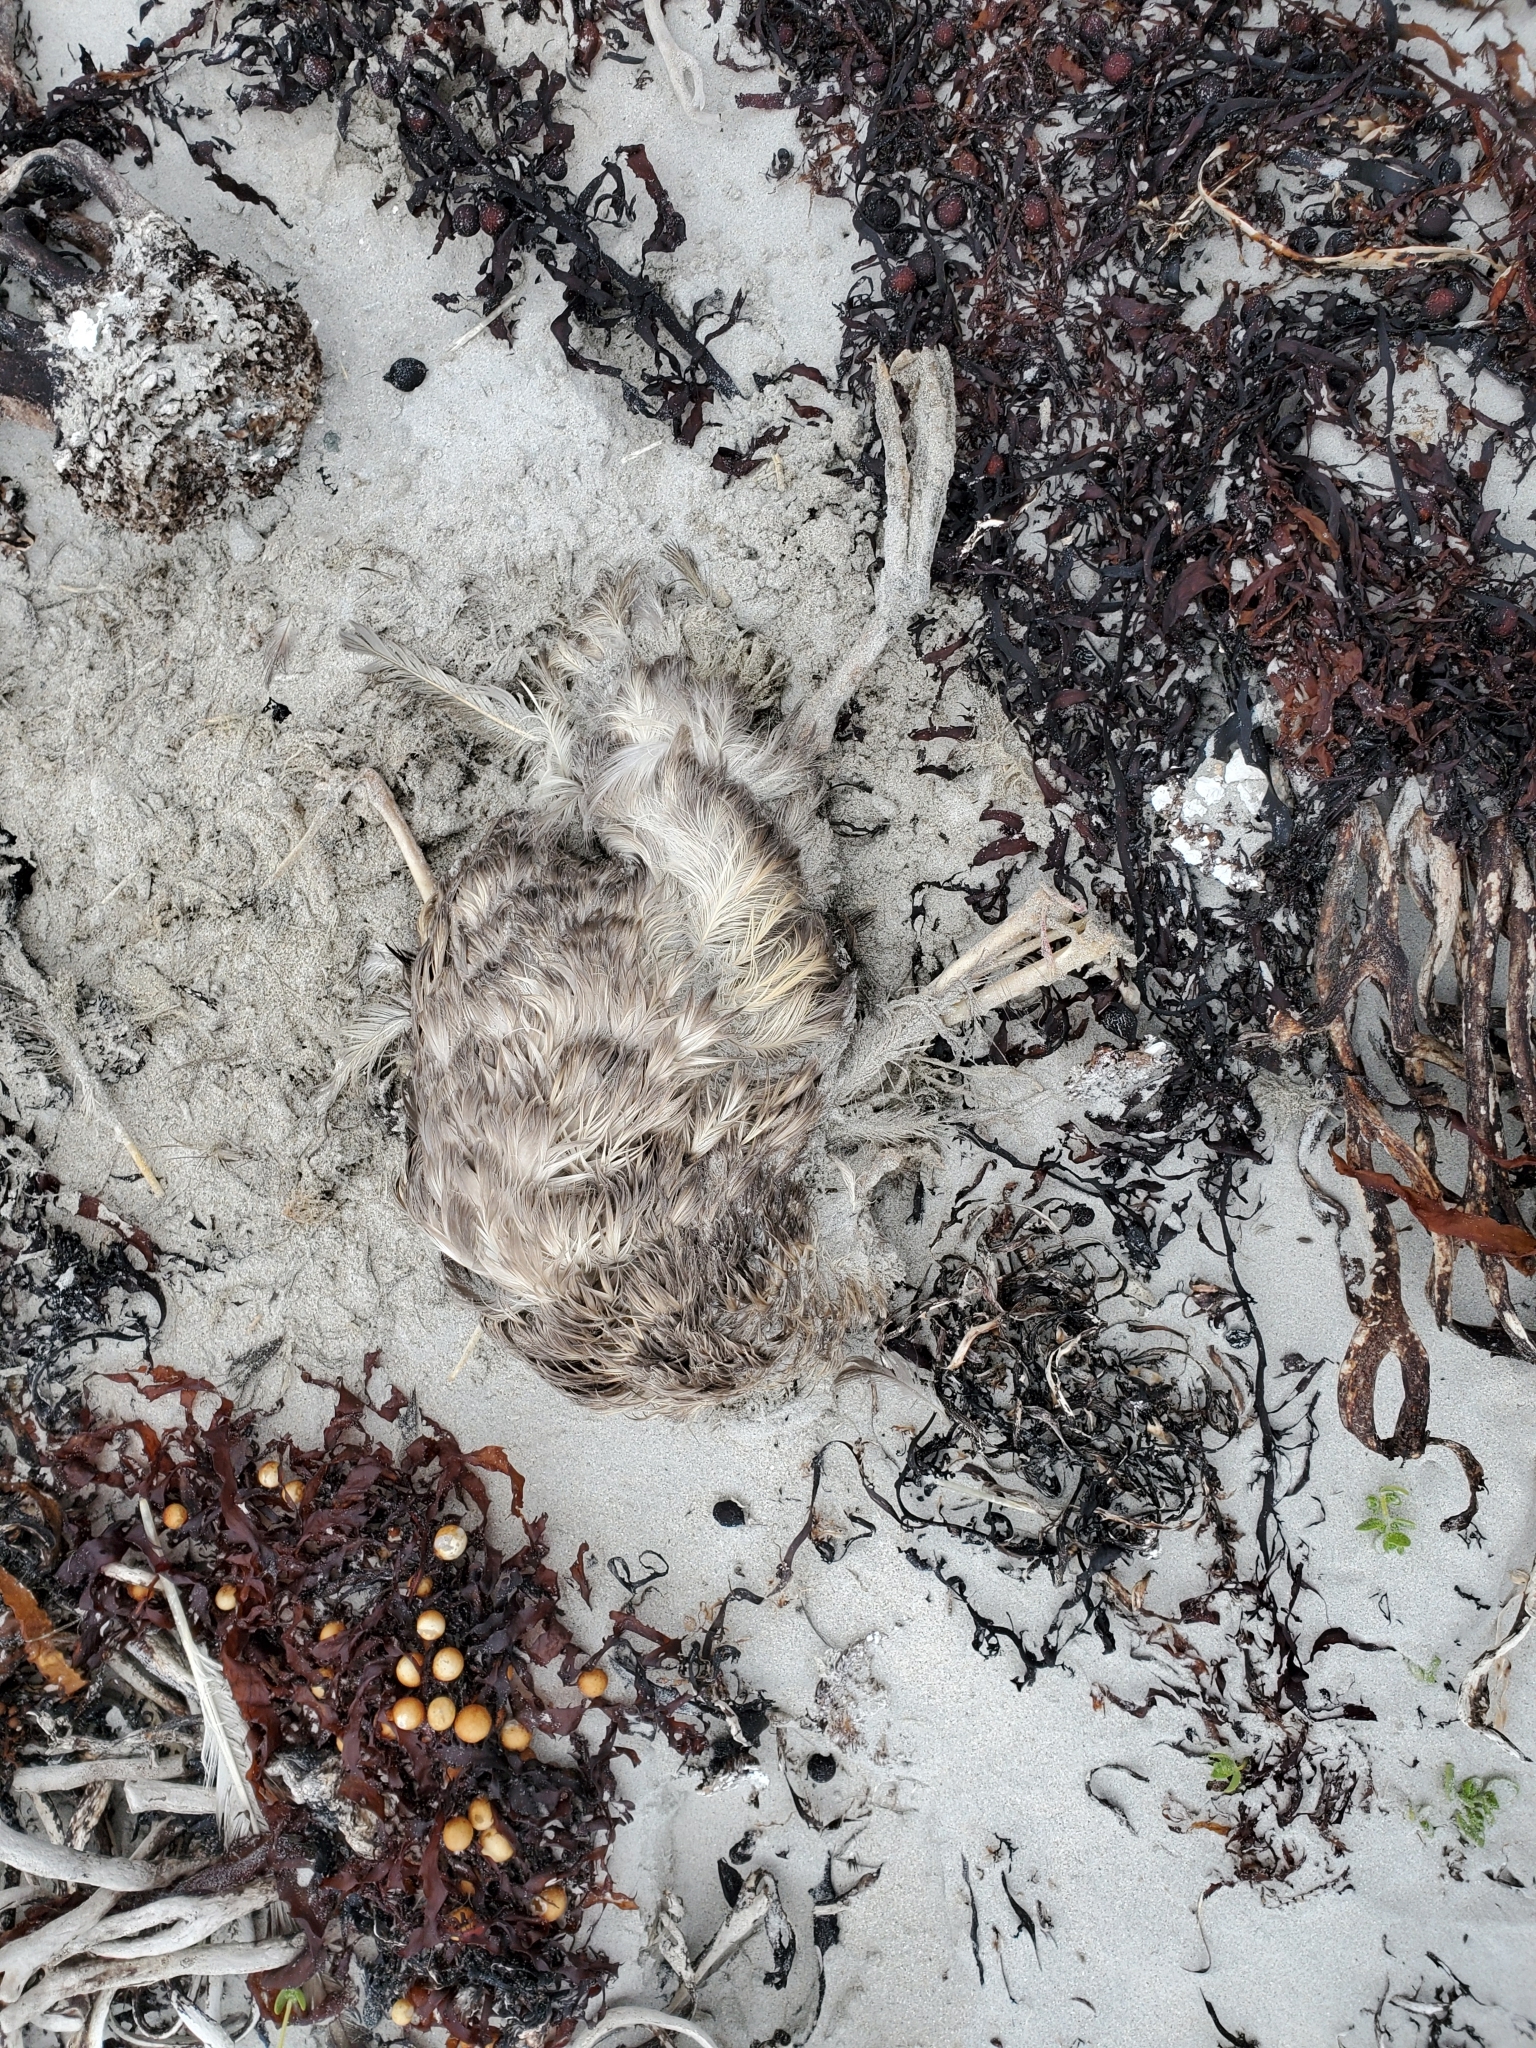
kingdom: Animalia
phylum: Chordata
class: Aves
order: Procellariiformes
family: Procellariidae
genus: Macronectes
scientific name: Macronectes giganteus
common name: Southern giant petrel
